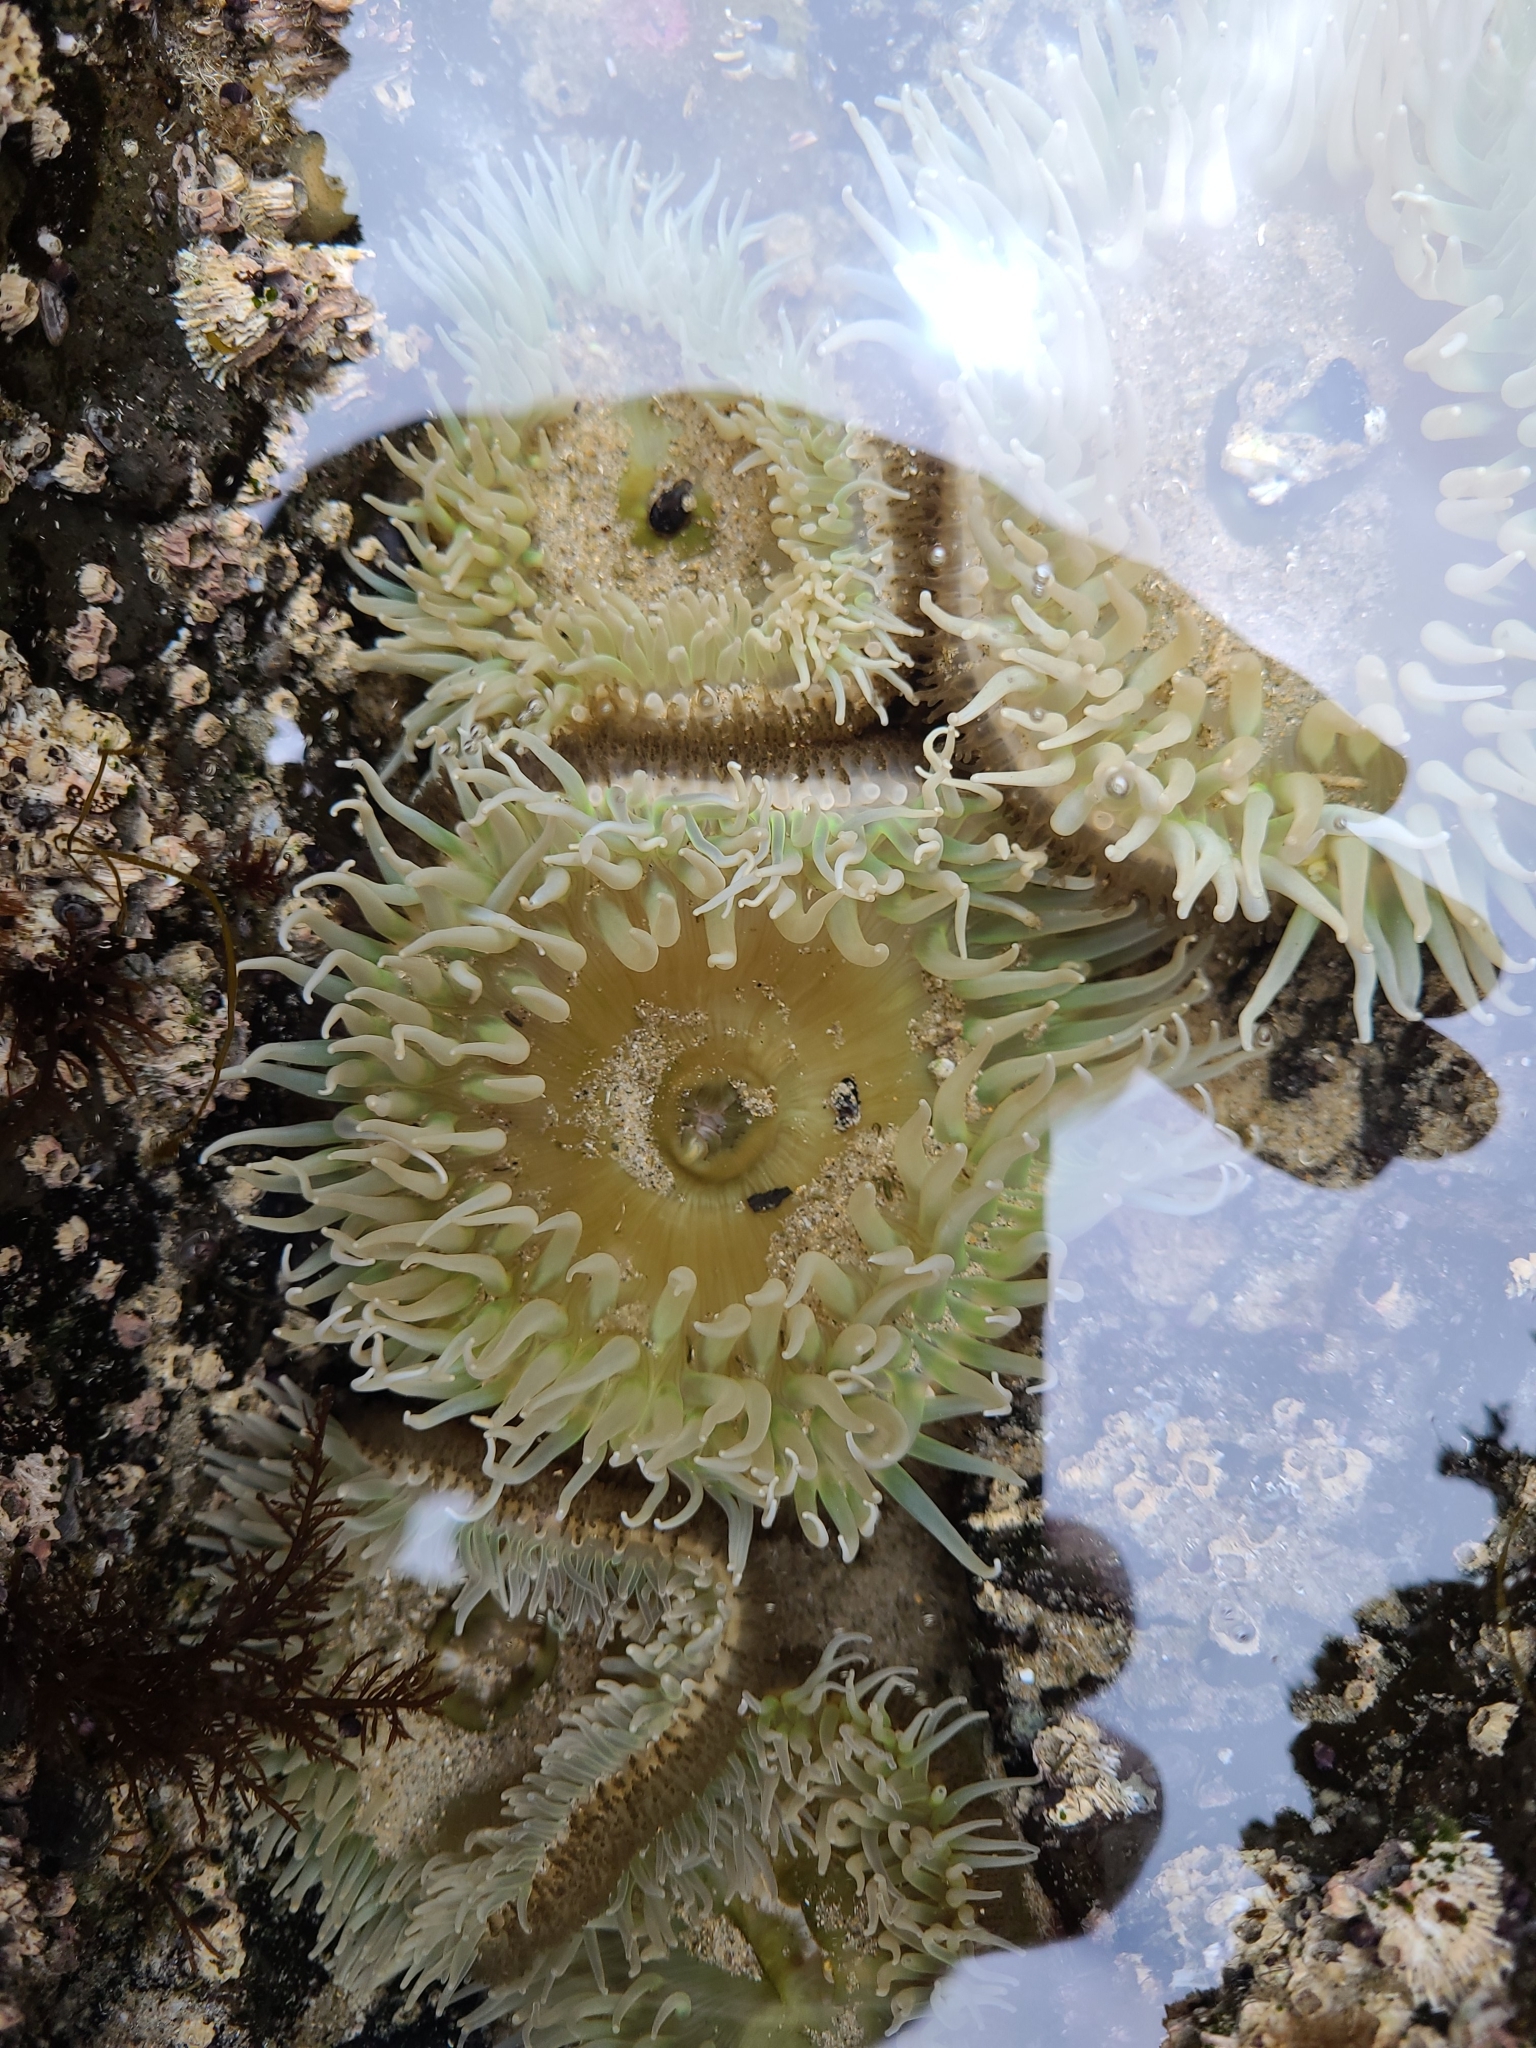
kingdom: Animalia
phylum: Cnidaria
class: Anthozoa
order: Actiniaria
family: Actiniidae
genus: Anthopleura
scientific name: Anthopleura xanthogrammica
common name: Giant green anemone
